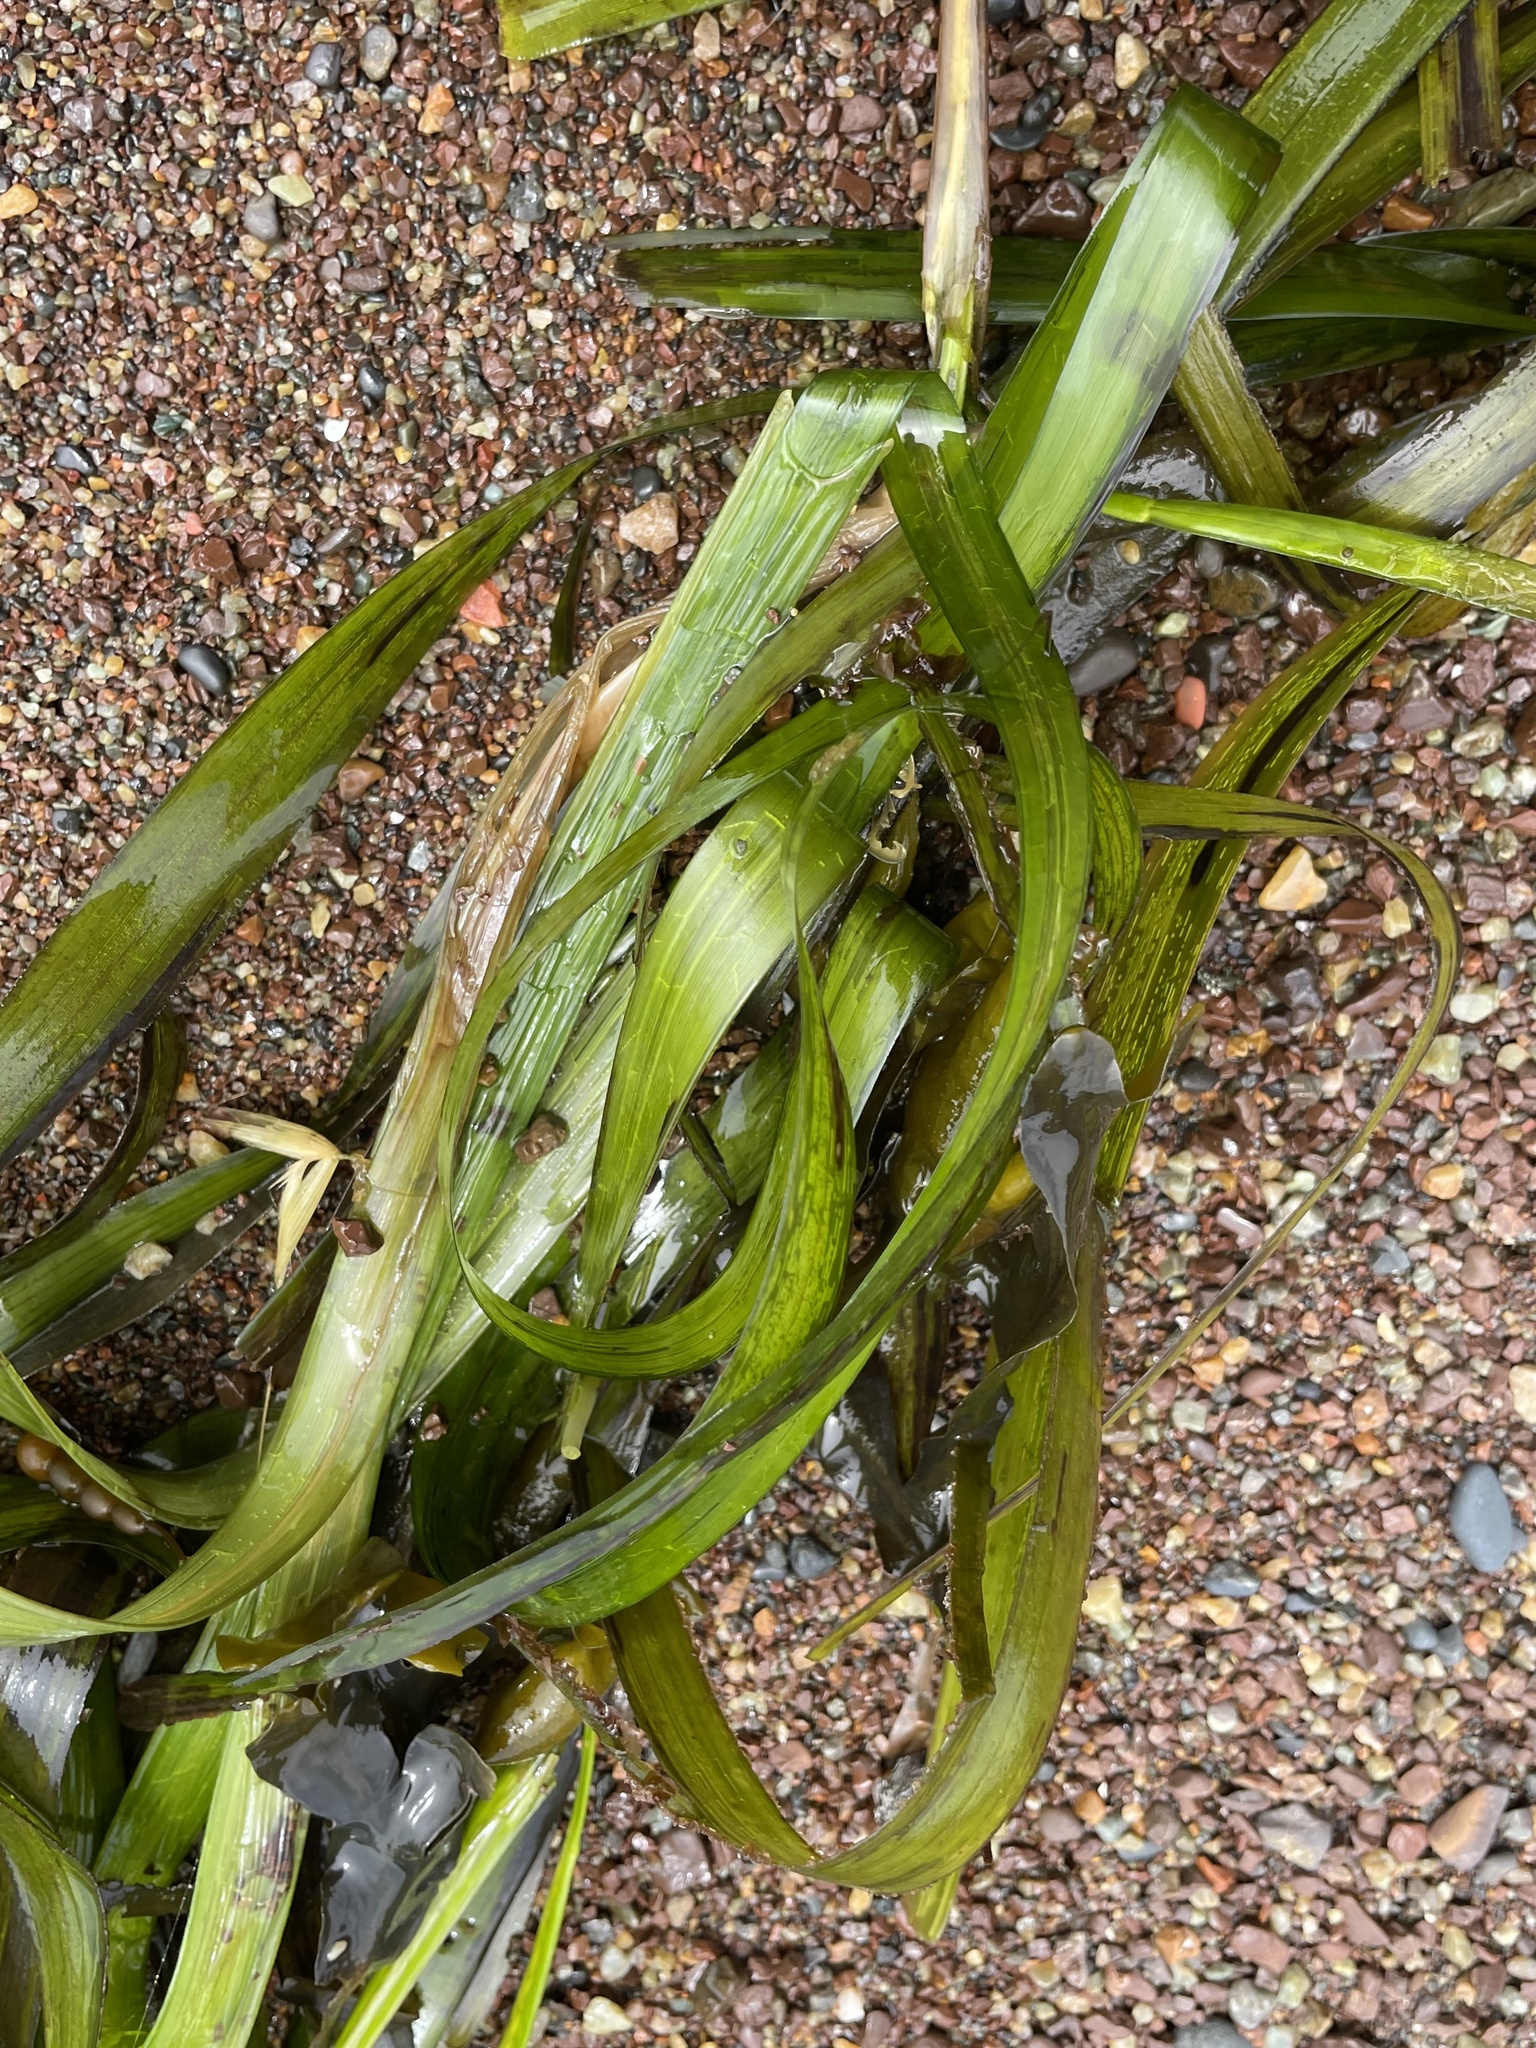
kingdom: Plantae
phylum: Tracheophyta
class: Liliopsida
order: Alismatales
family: Zosteraceae
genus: Zostera
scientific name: Zostera marina
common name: Eelgrass
